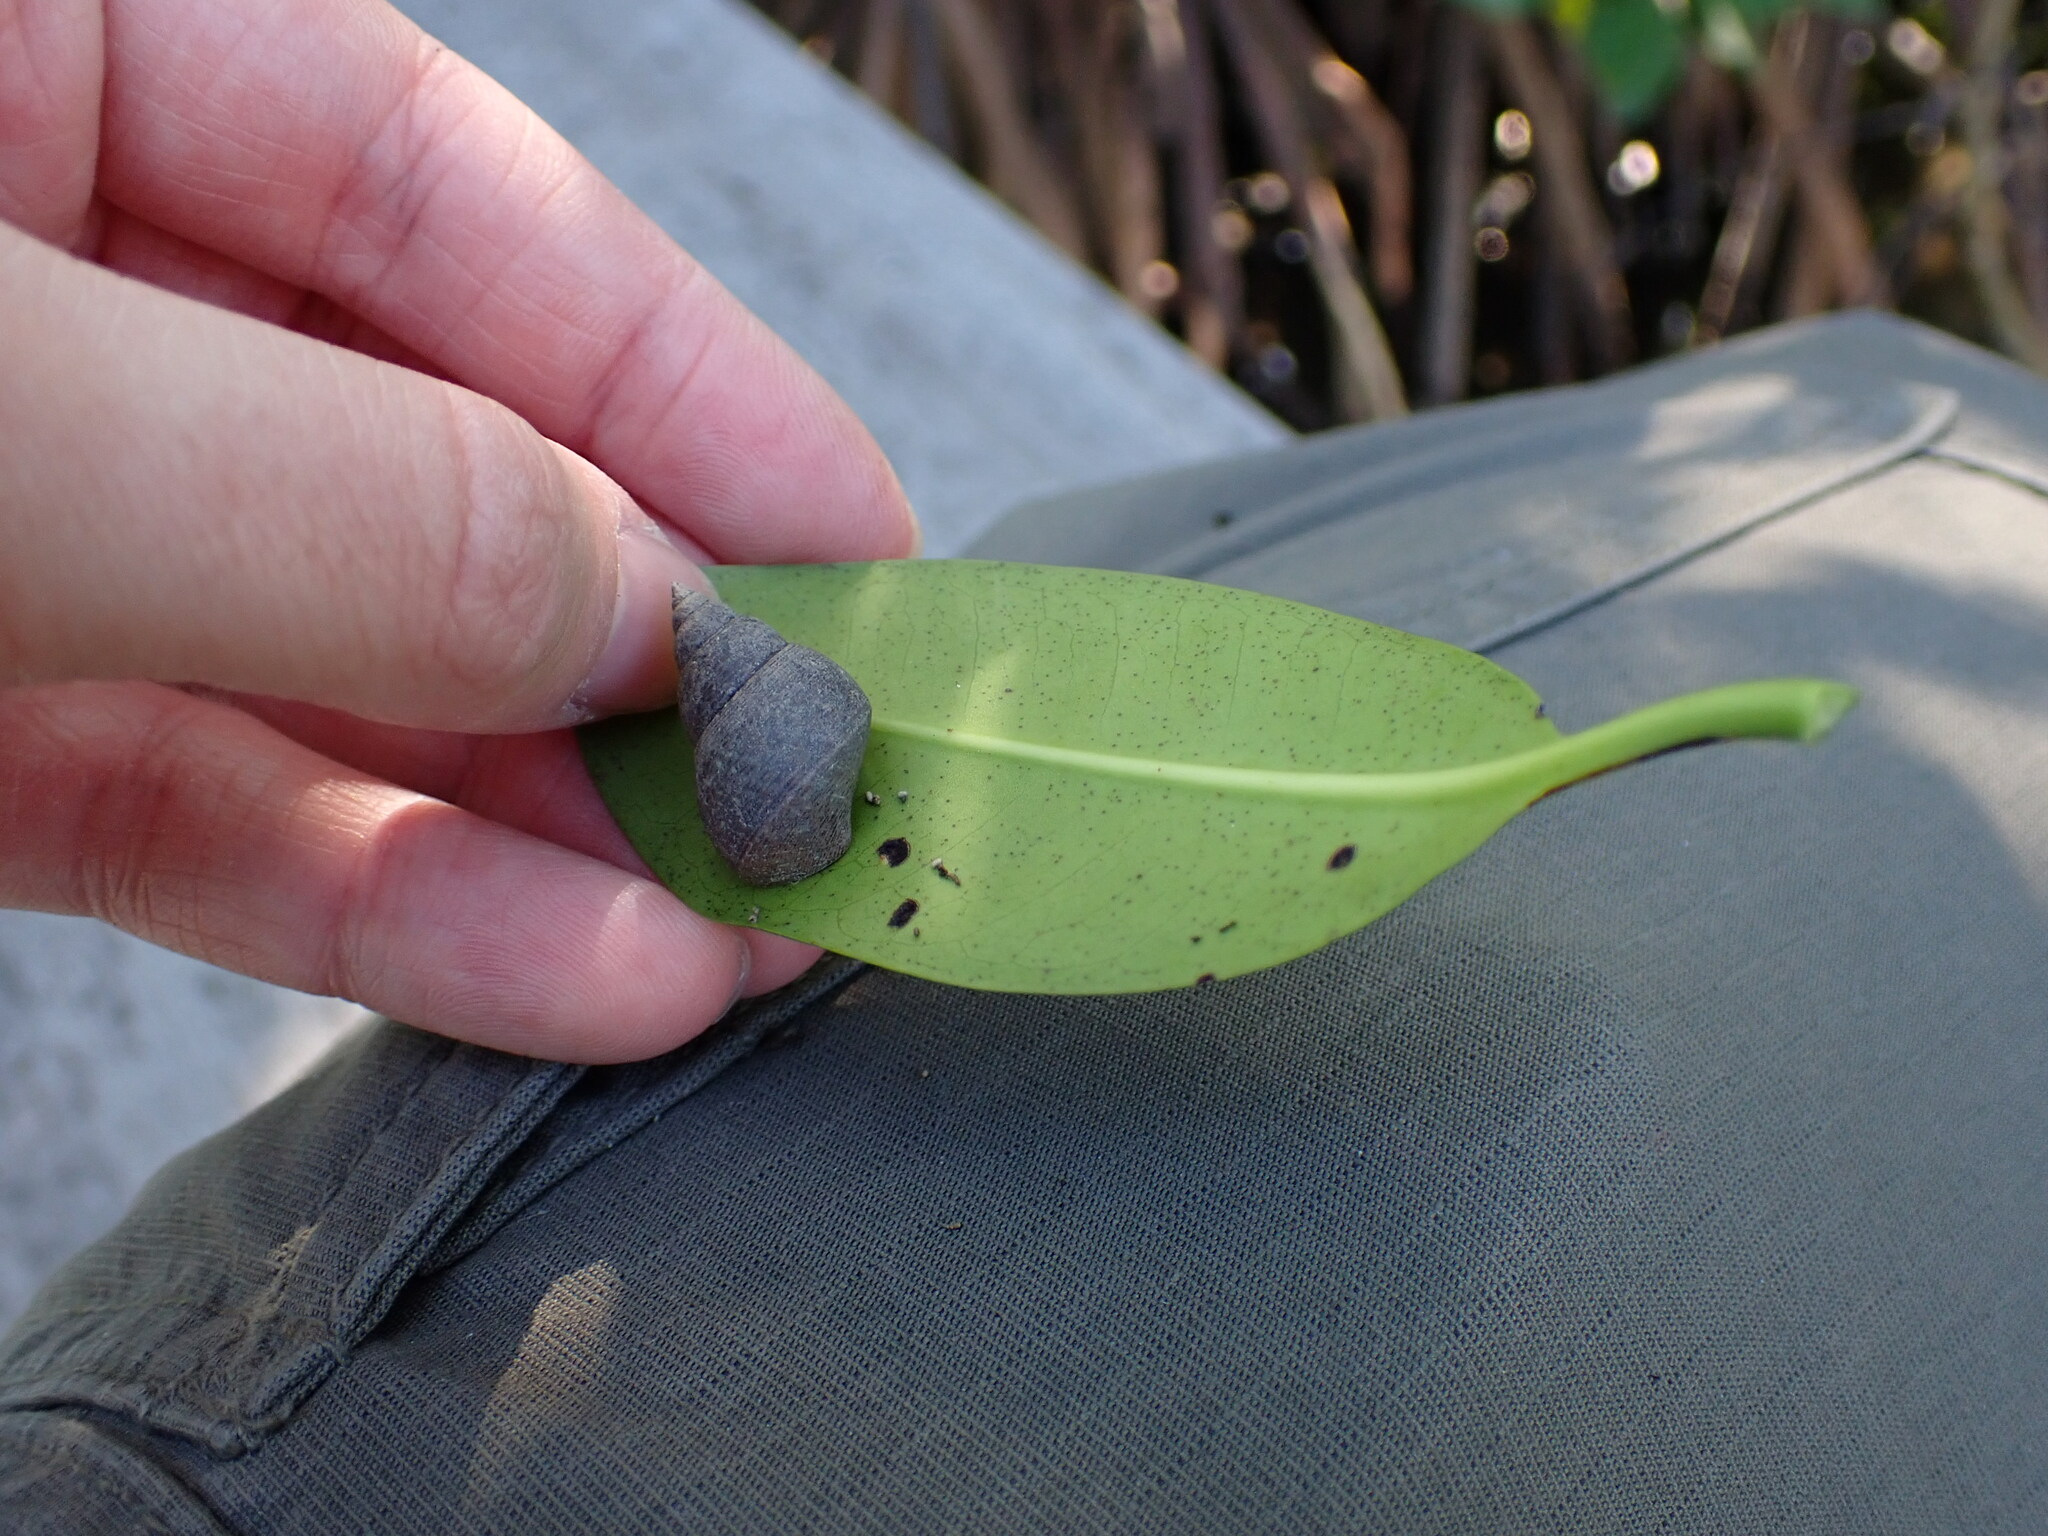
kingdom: Animalia
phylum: Mollusca
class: Gastropoda
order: Littorinimorpha
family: Littorinidae
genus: Littoraria
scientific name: Littoraria angulifera
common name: Mangrove periwinkle
